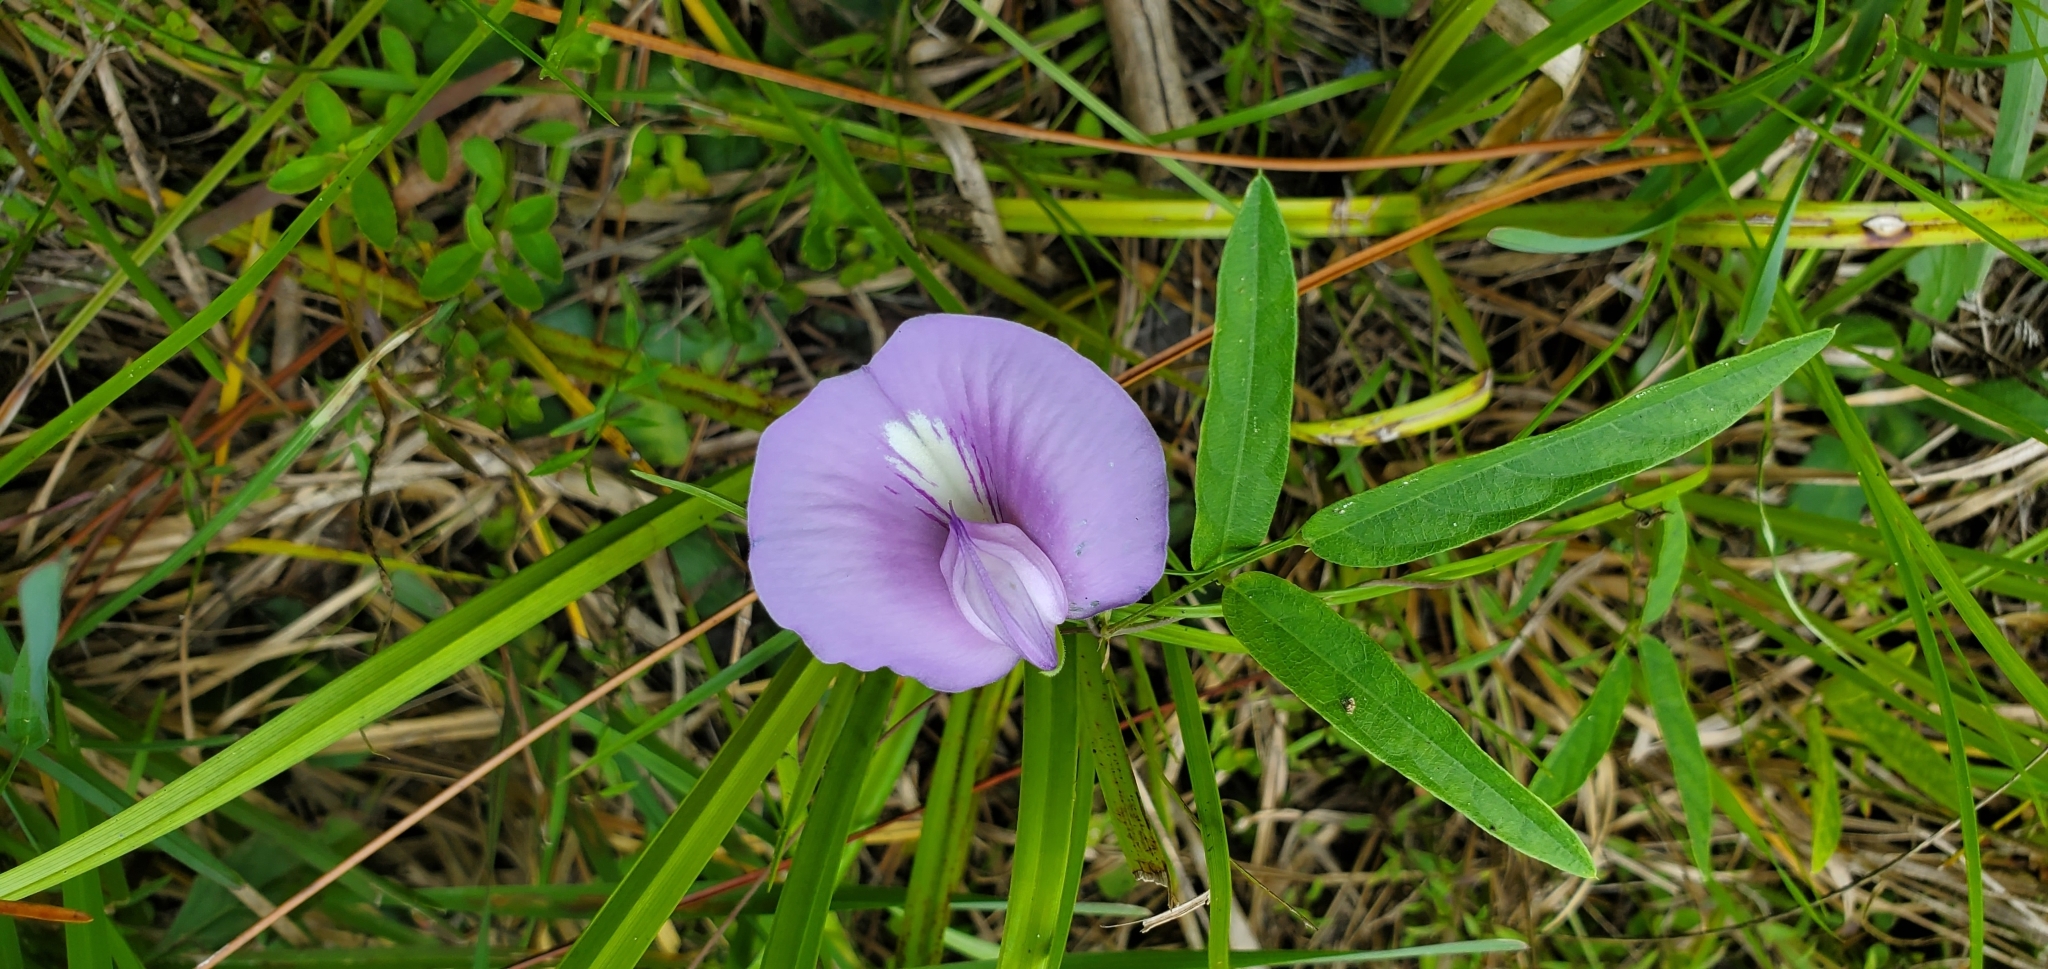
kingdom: Plantae
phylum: Tracheophyta
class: Magnoliopsida
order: Fabales
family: Fabaceae
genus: Centrosema
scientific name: Centrosema virginianum
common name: Butterfly-pea
